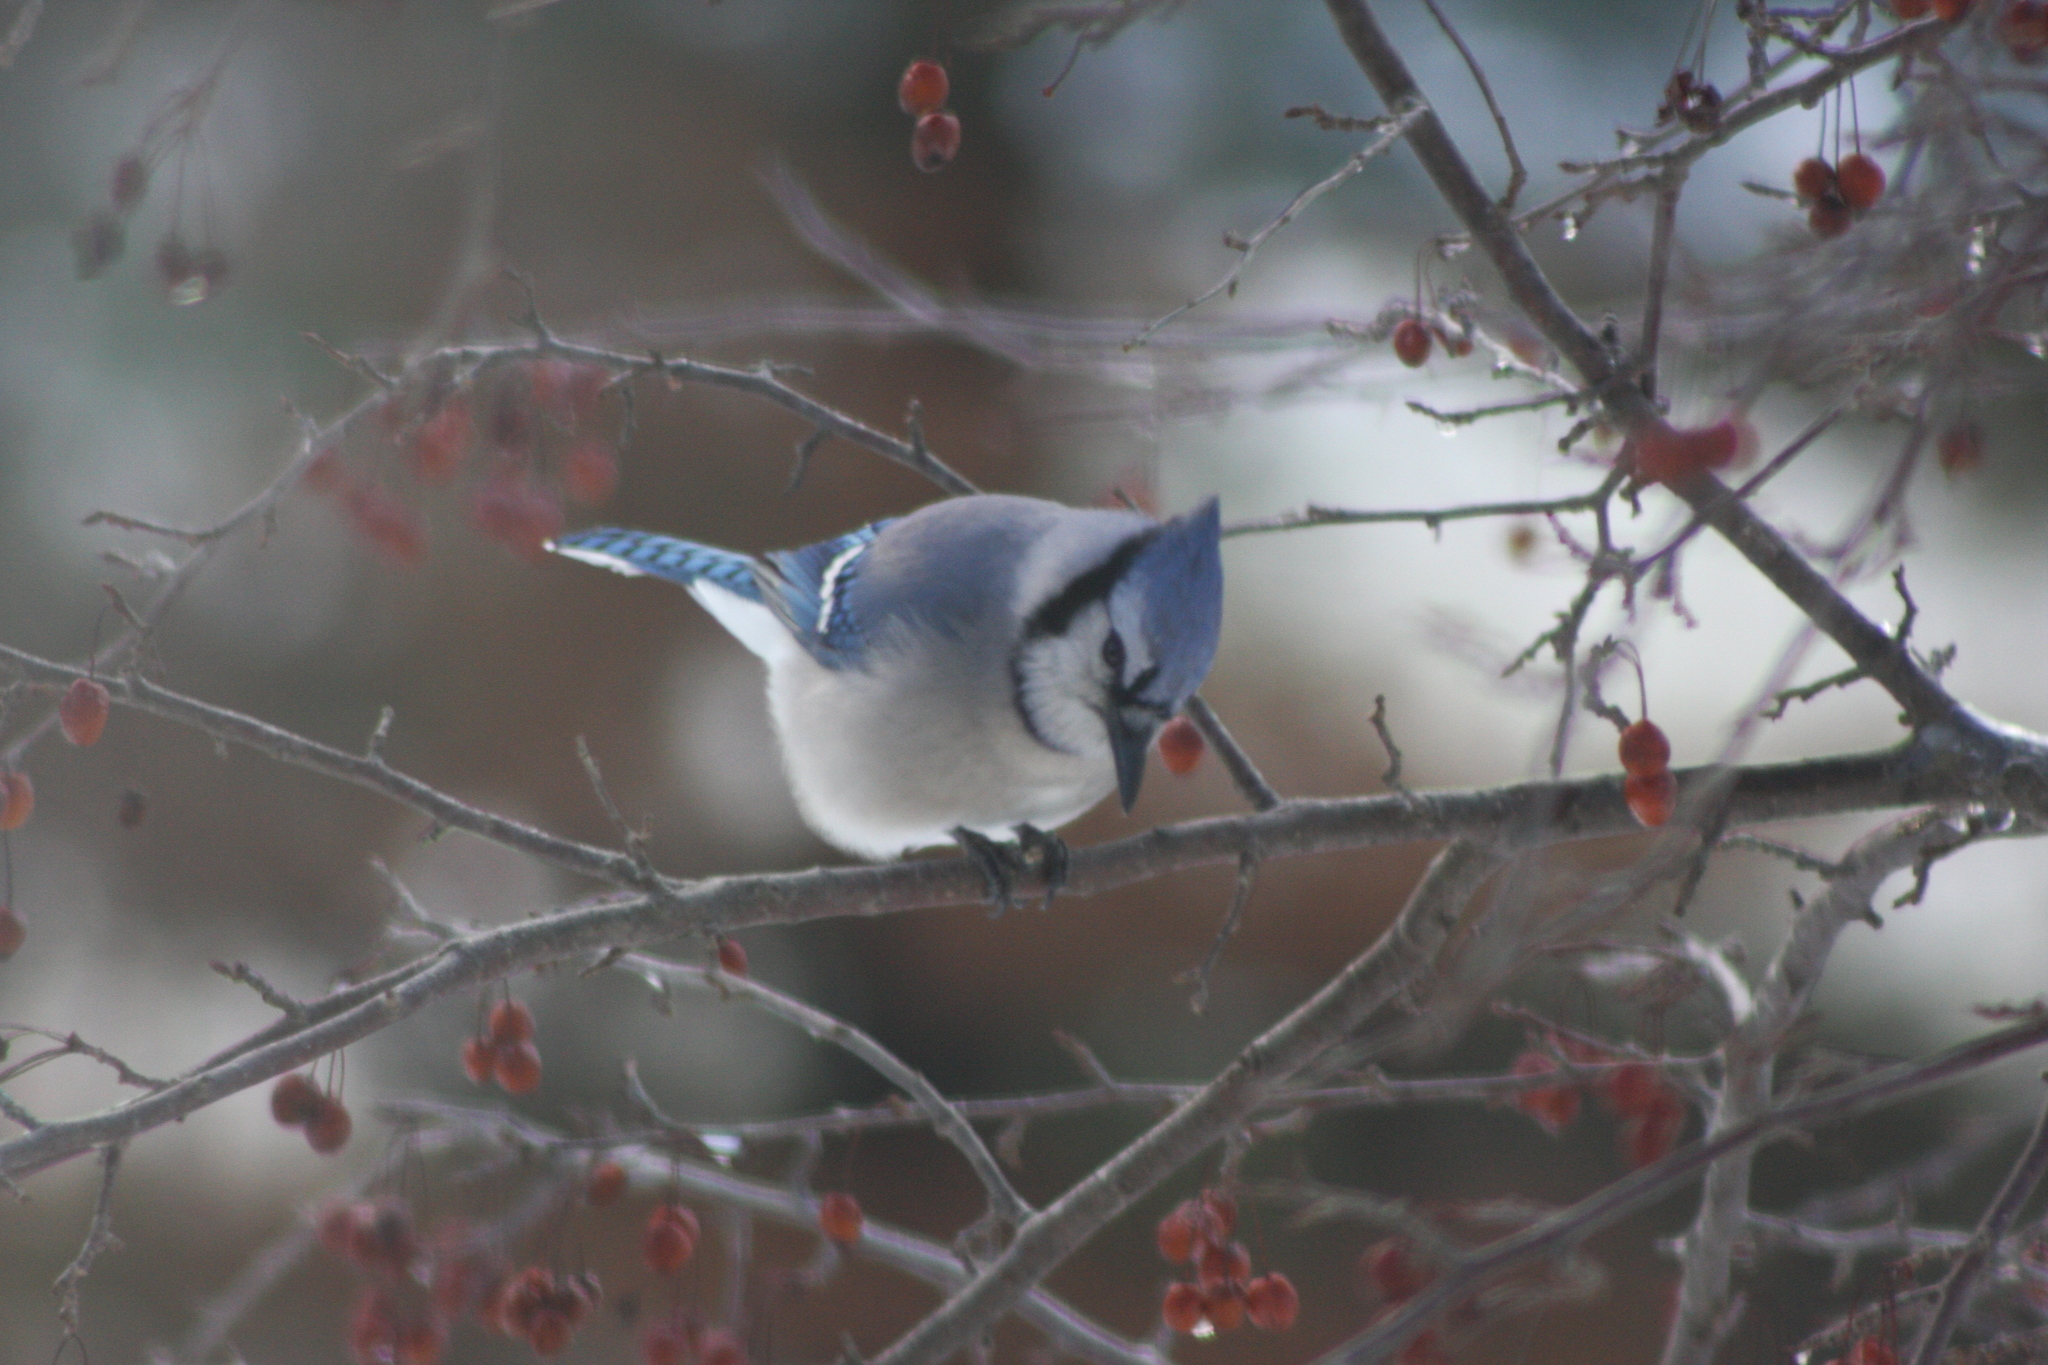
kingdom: Animalia
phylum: Chordata
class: Aves
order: Passeriformes
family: Corvidae
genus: Cyanocitta
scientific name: Cyanocitta cristata
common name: Blue jay
